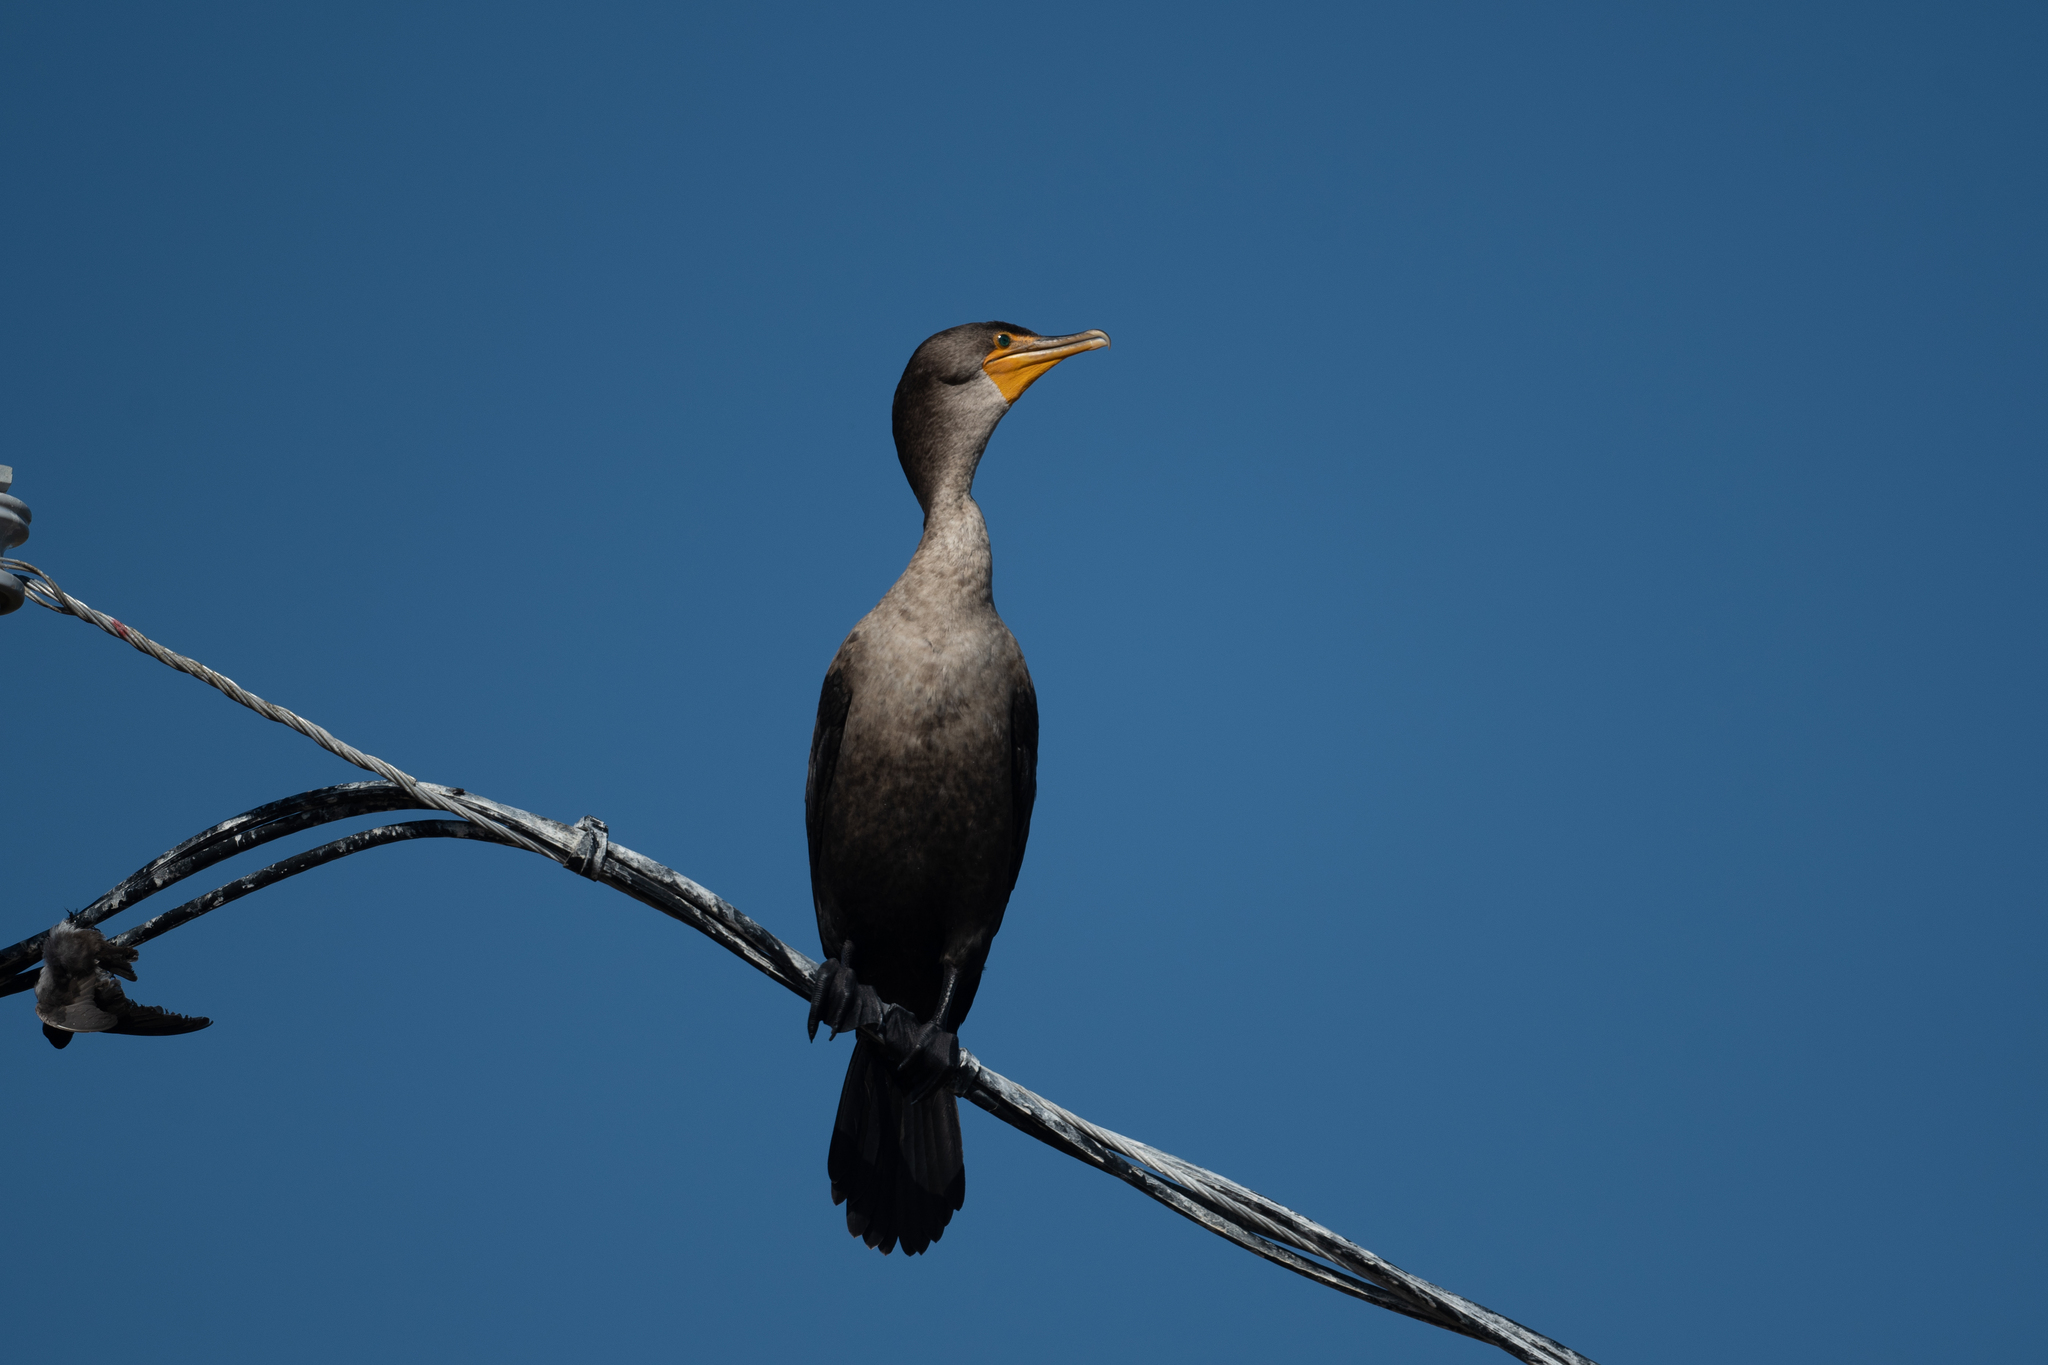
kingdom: Animalia
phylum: Chordata
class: Aves
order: Suliformes
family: Phalacrocoracidae
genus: Phalacrocorax
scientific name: Phalacrocorax auritus
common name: Double-crested cormorant
